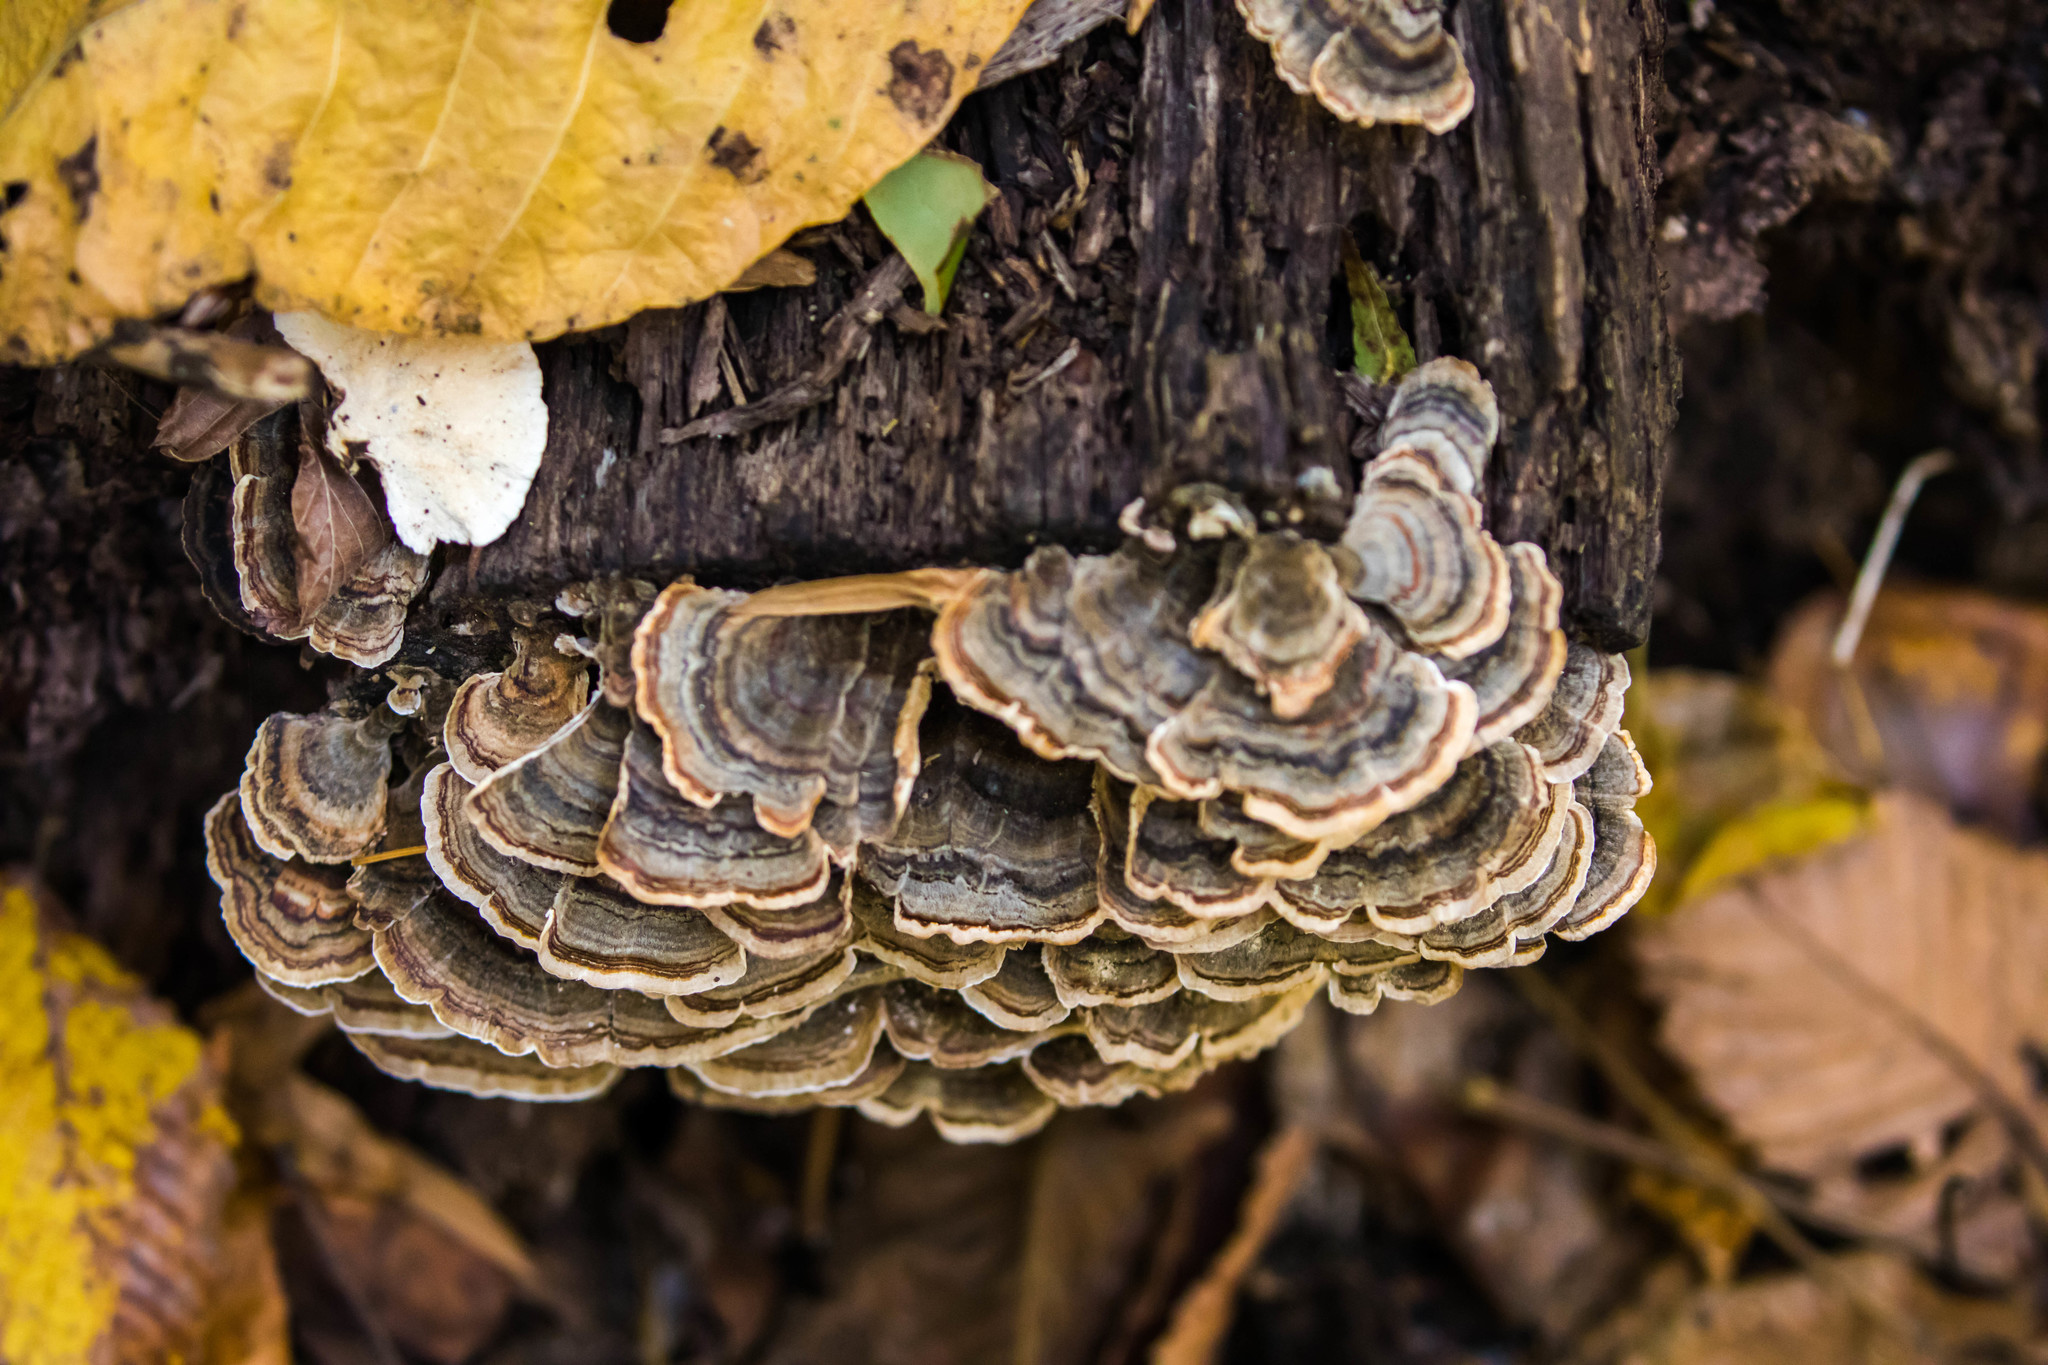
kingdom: Fungi
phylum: Basidiomycota
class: Agaricomycetes
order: Polyporales
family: Polyporaceae
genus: Trametes
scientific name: Trametes versicolor
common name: Turkeytail
